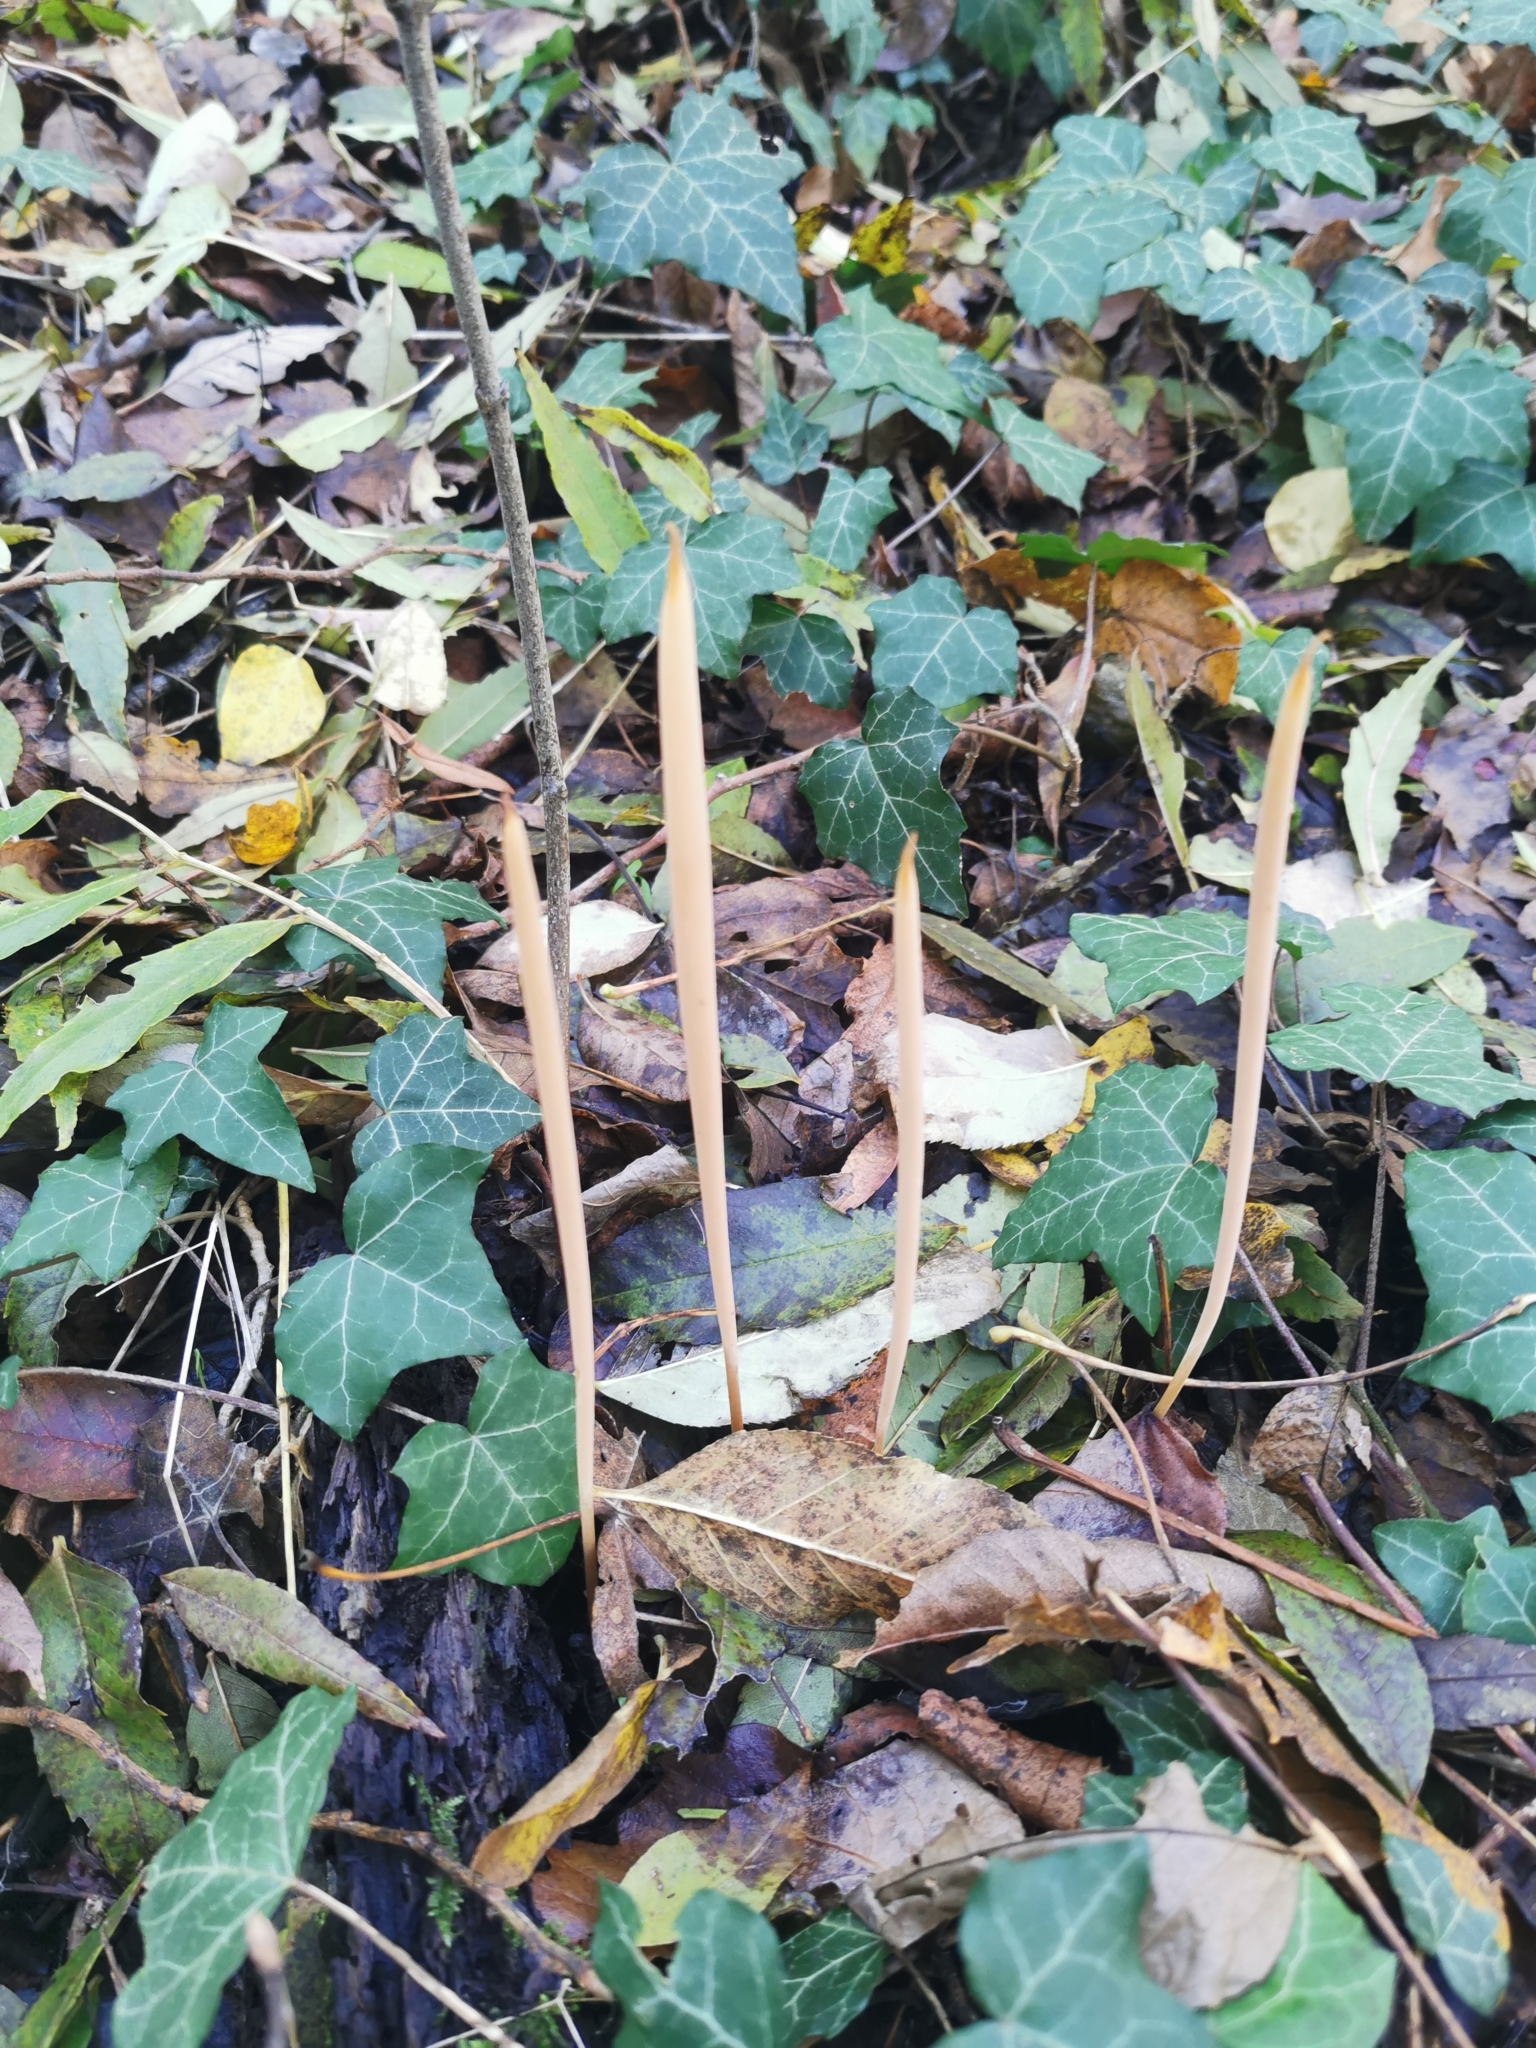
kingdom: Fungi
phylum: Basidiomycota
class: Agaricomycetes
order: Agaricales
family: Typhulaceae
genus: Typhula
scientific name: Typhula fistulosa
